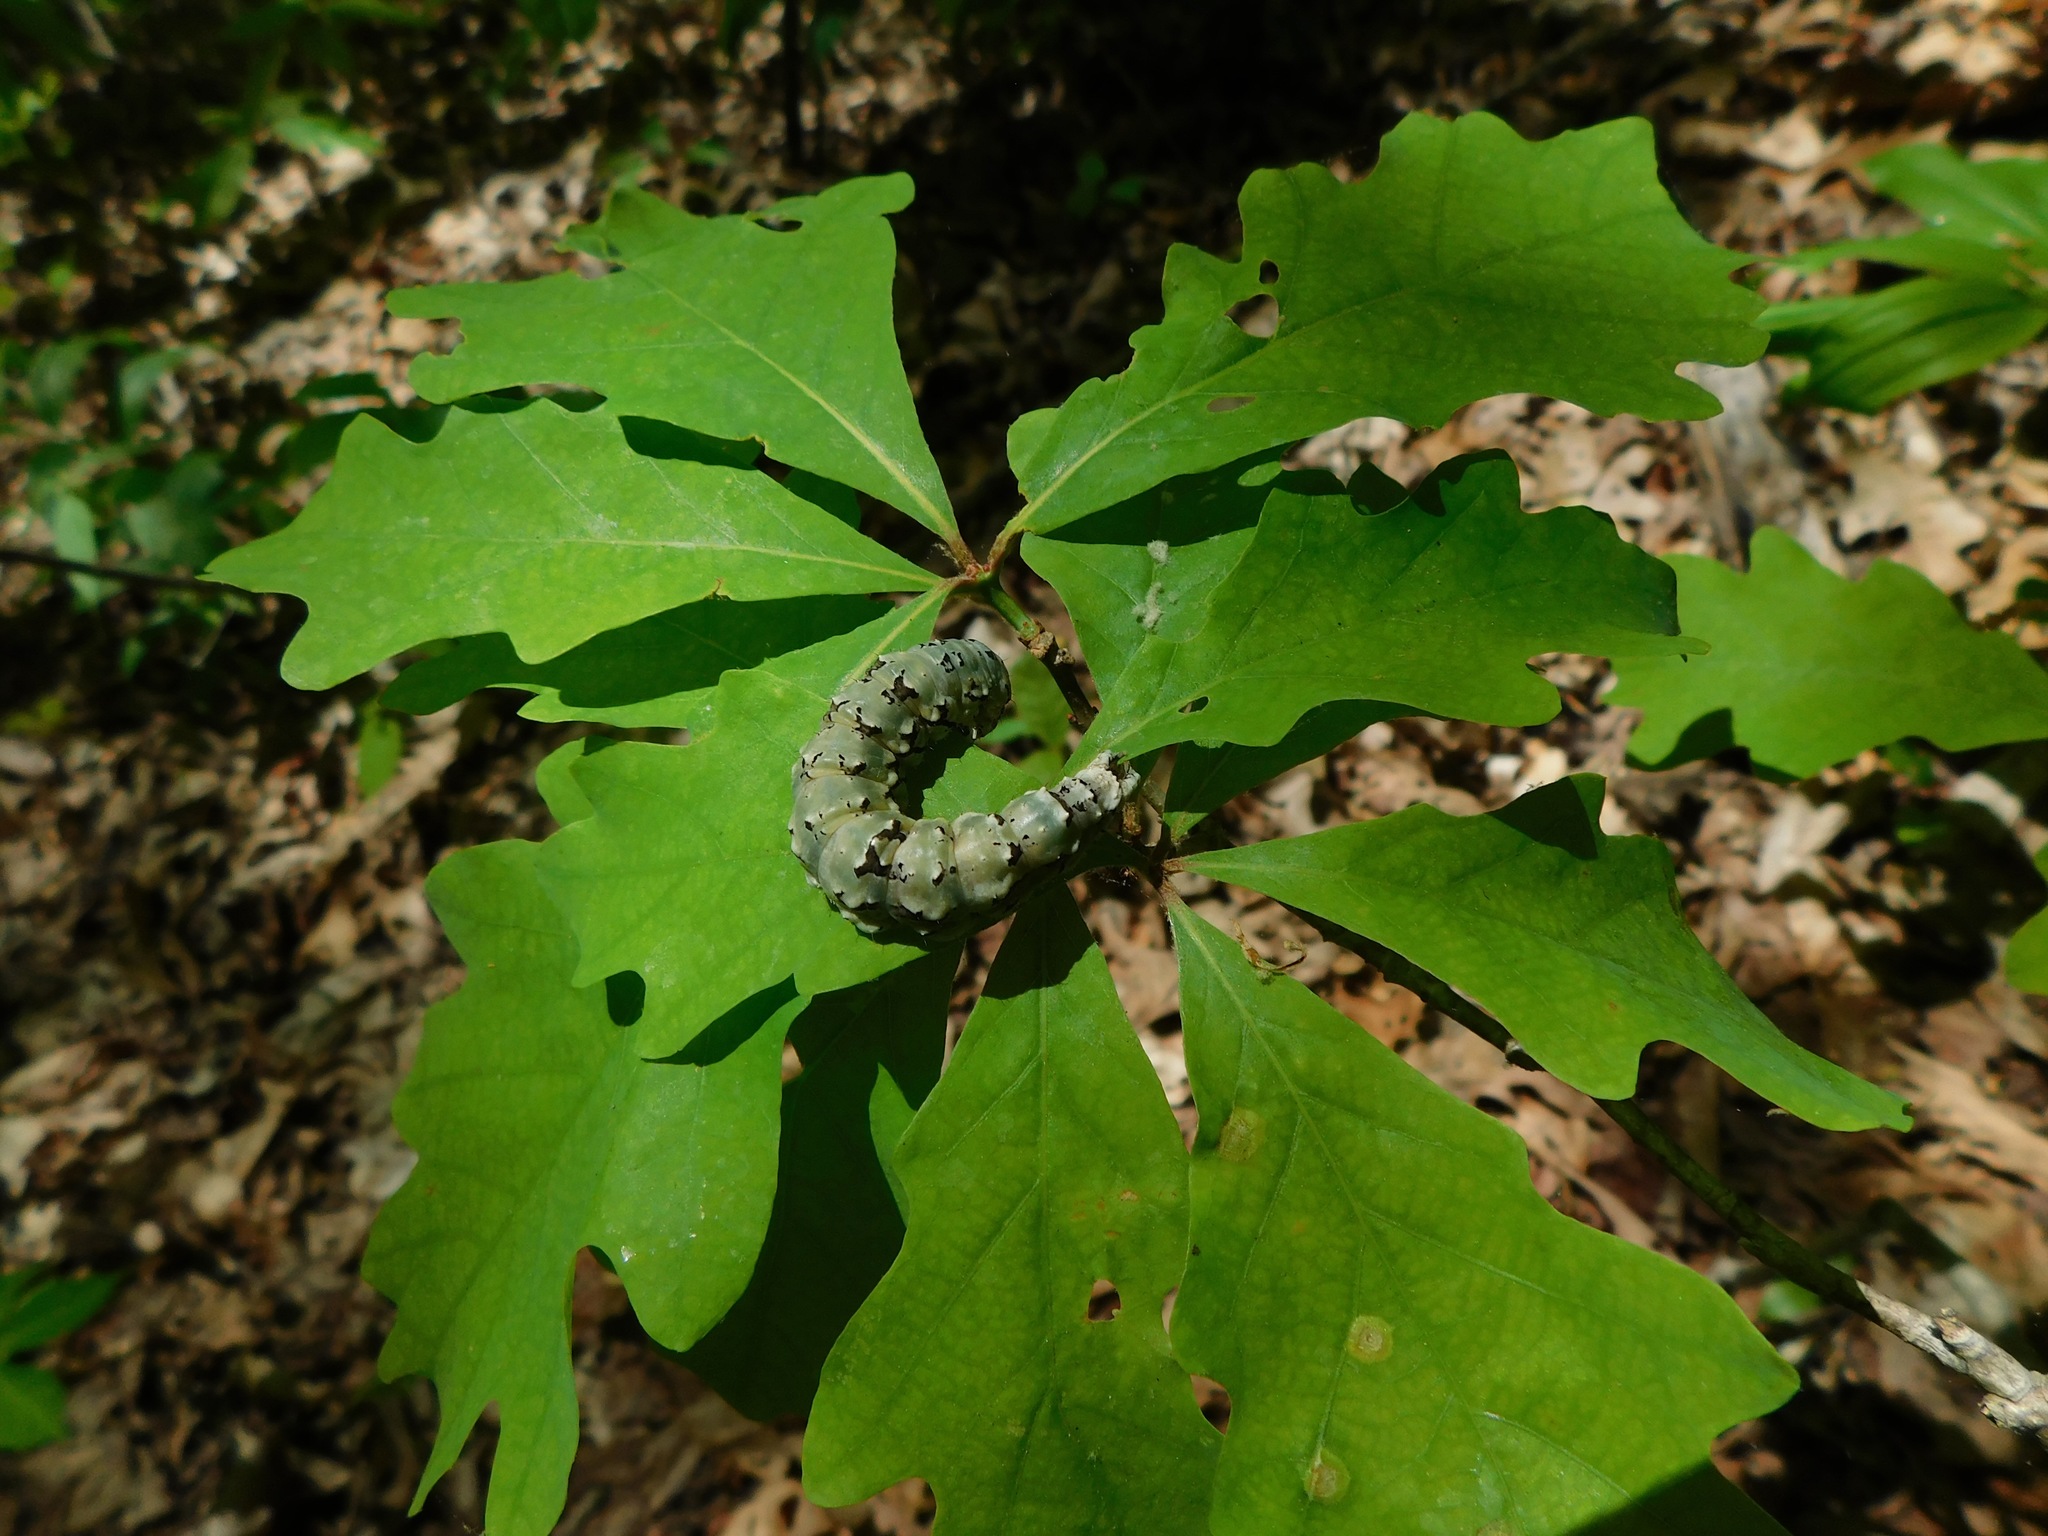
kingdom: Animalia
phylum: Arthropoda
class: Insecta
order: Lepidoptera
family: Erebidae
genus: Catocala
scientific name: Catocala ilia
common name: Ilia underwing
